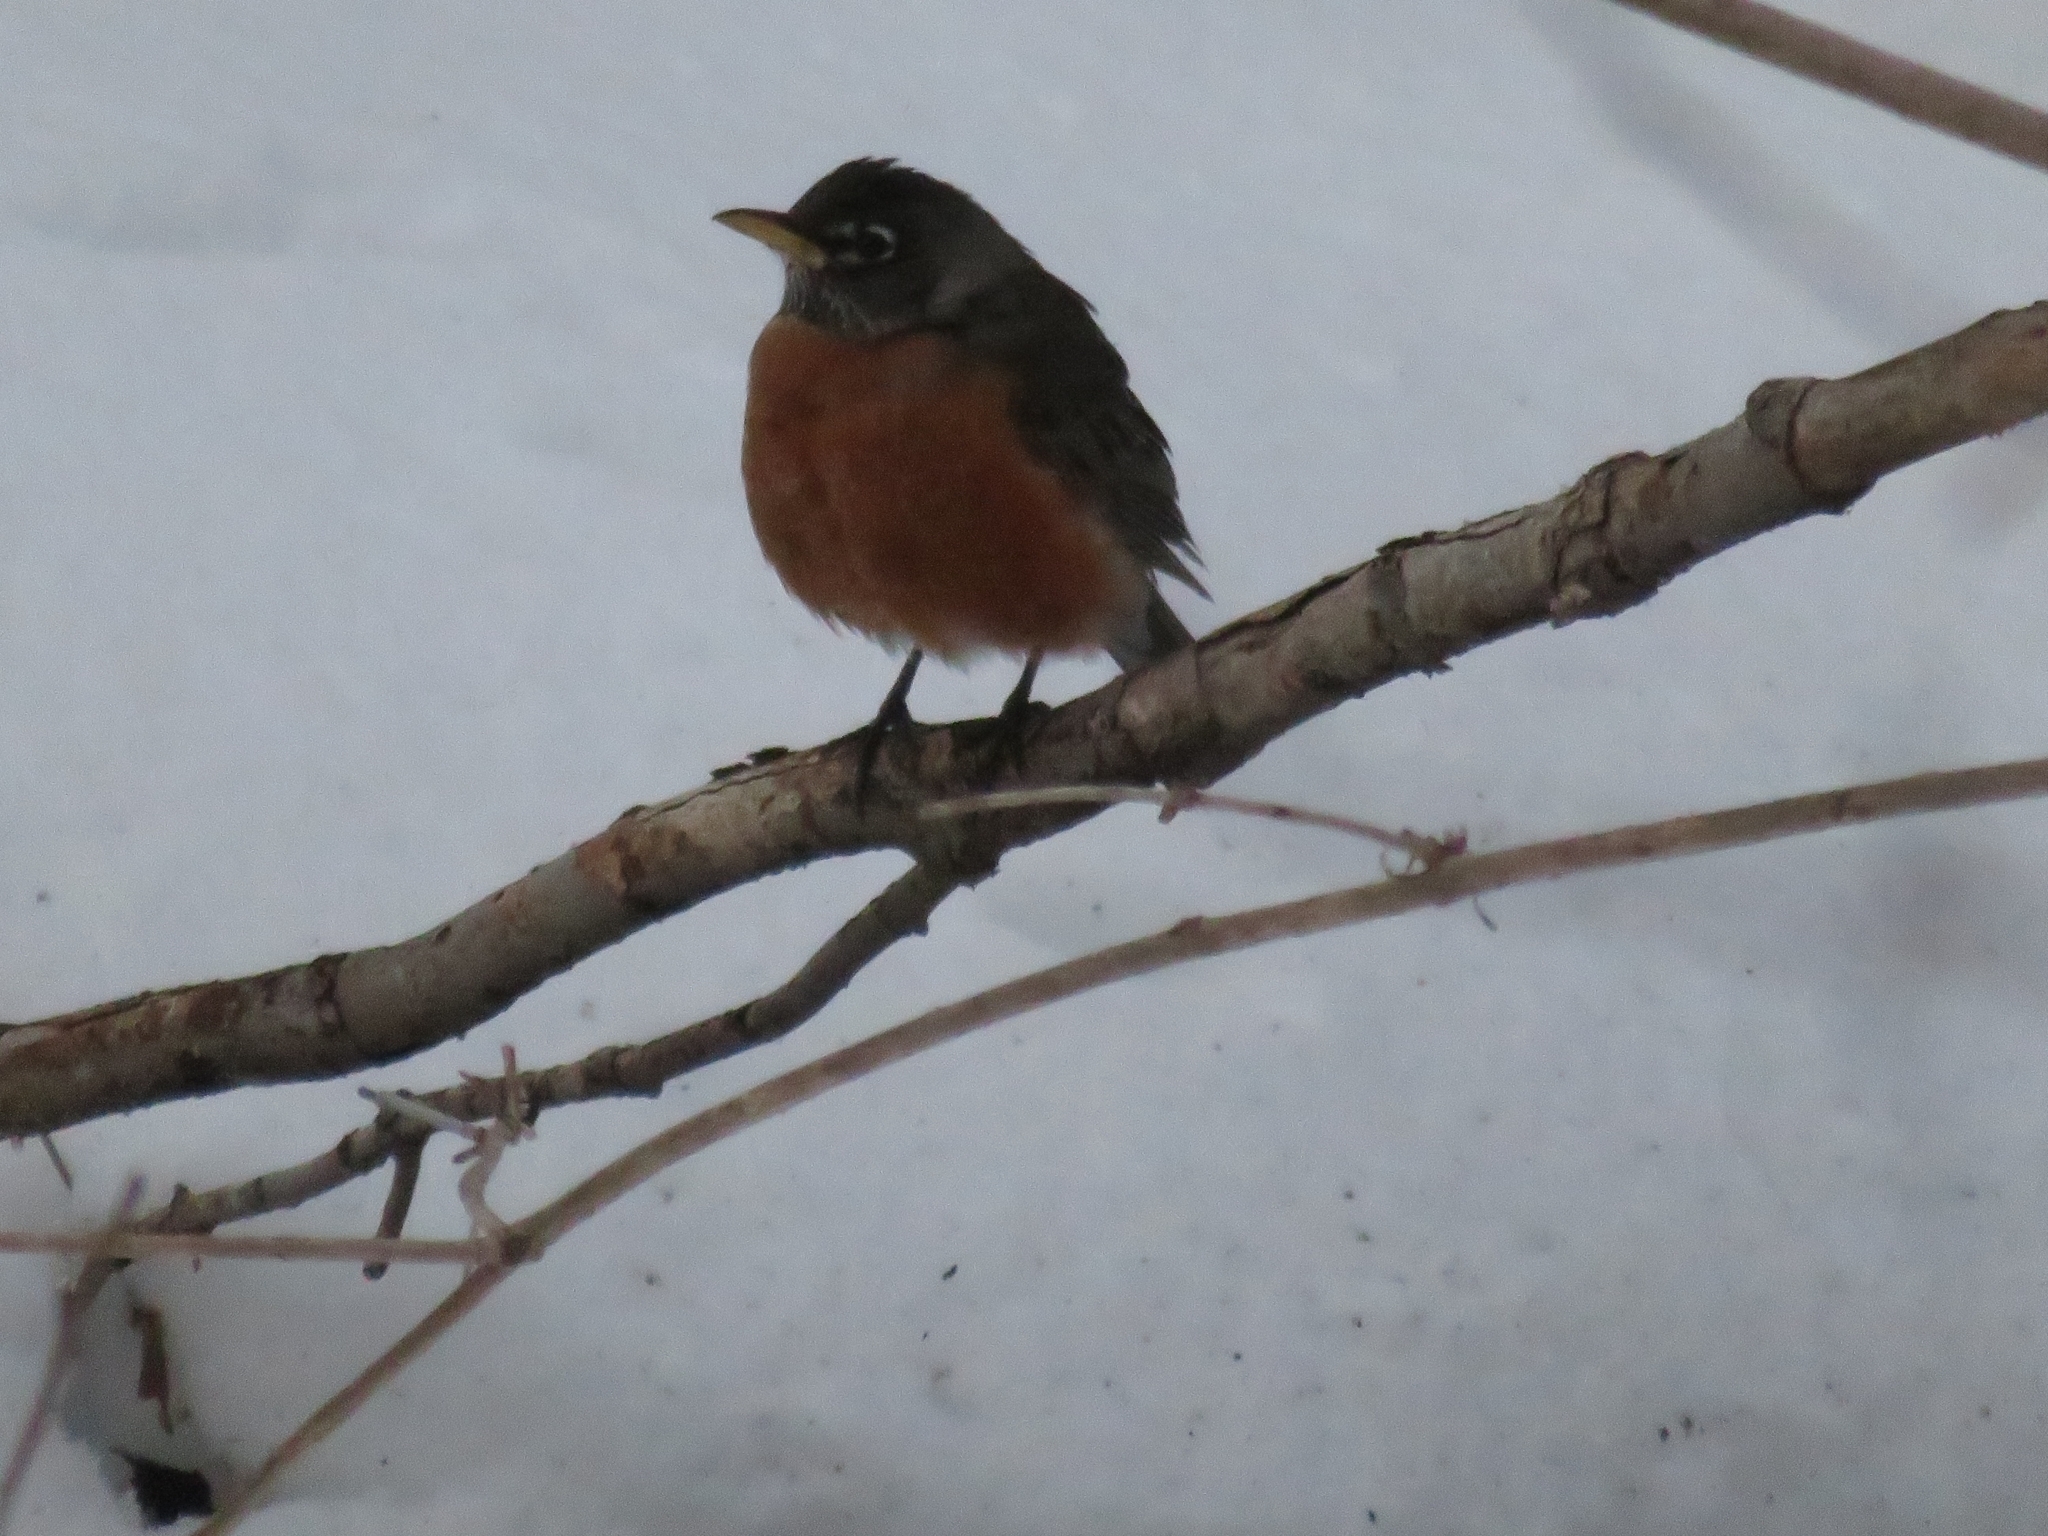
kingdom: Animalia
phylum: Chordata
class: Aves
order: Passeriformes
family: Turdidae
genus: Turdus
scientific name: Turdus migratorius
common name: American robin
